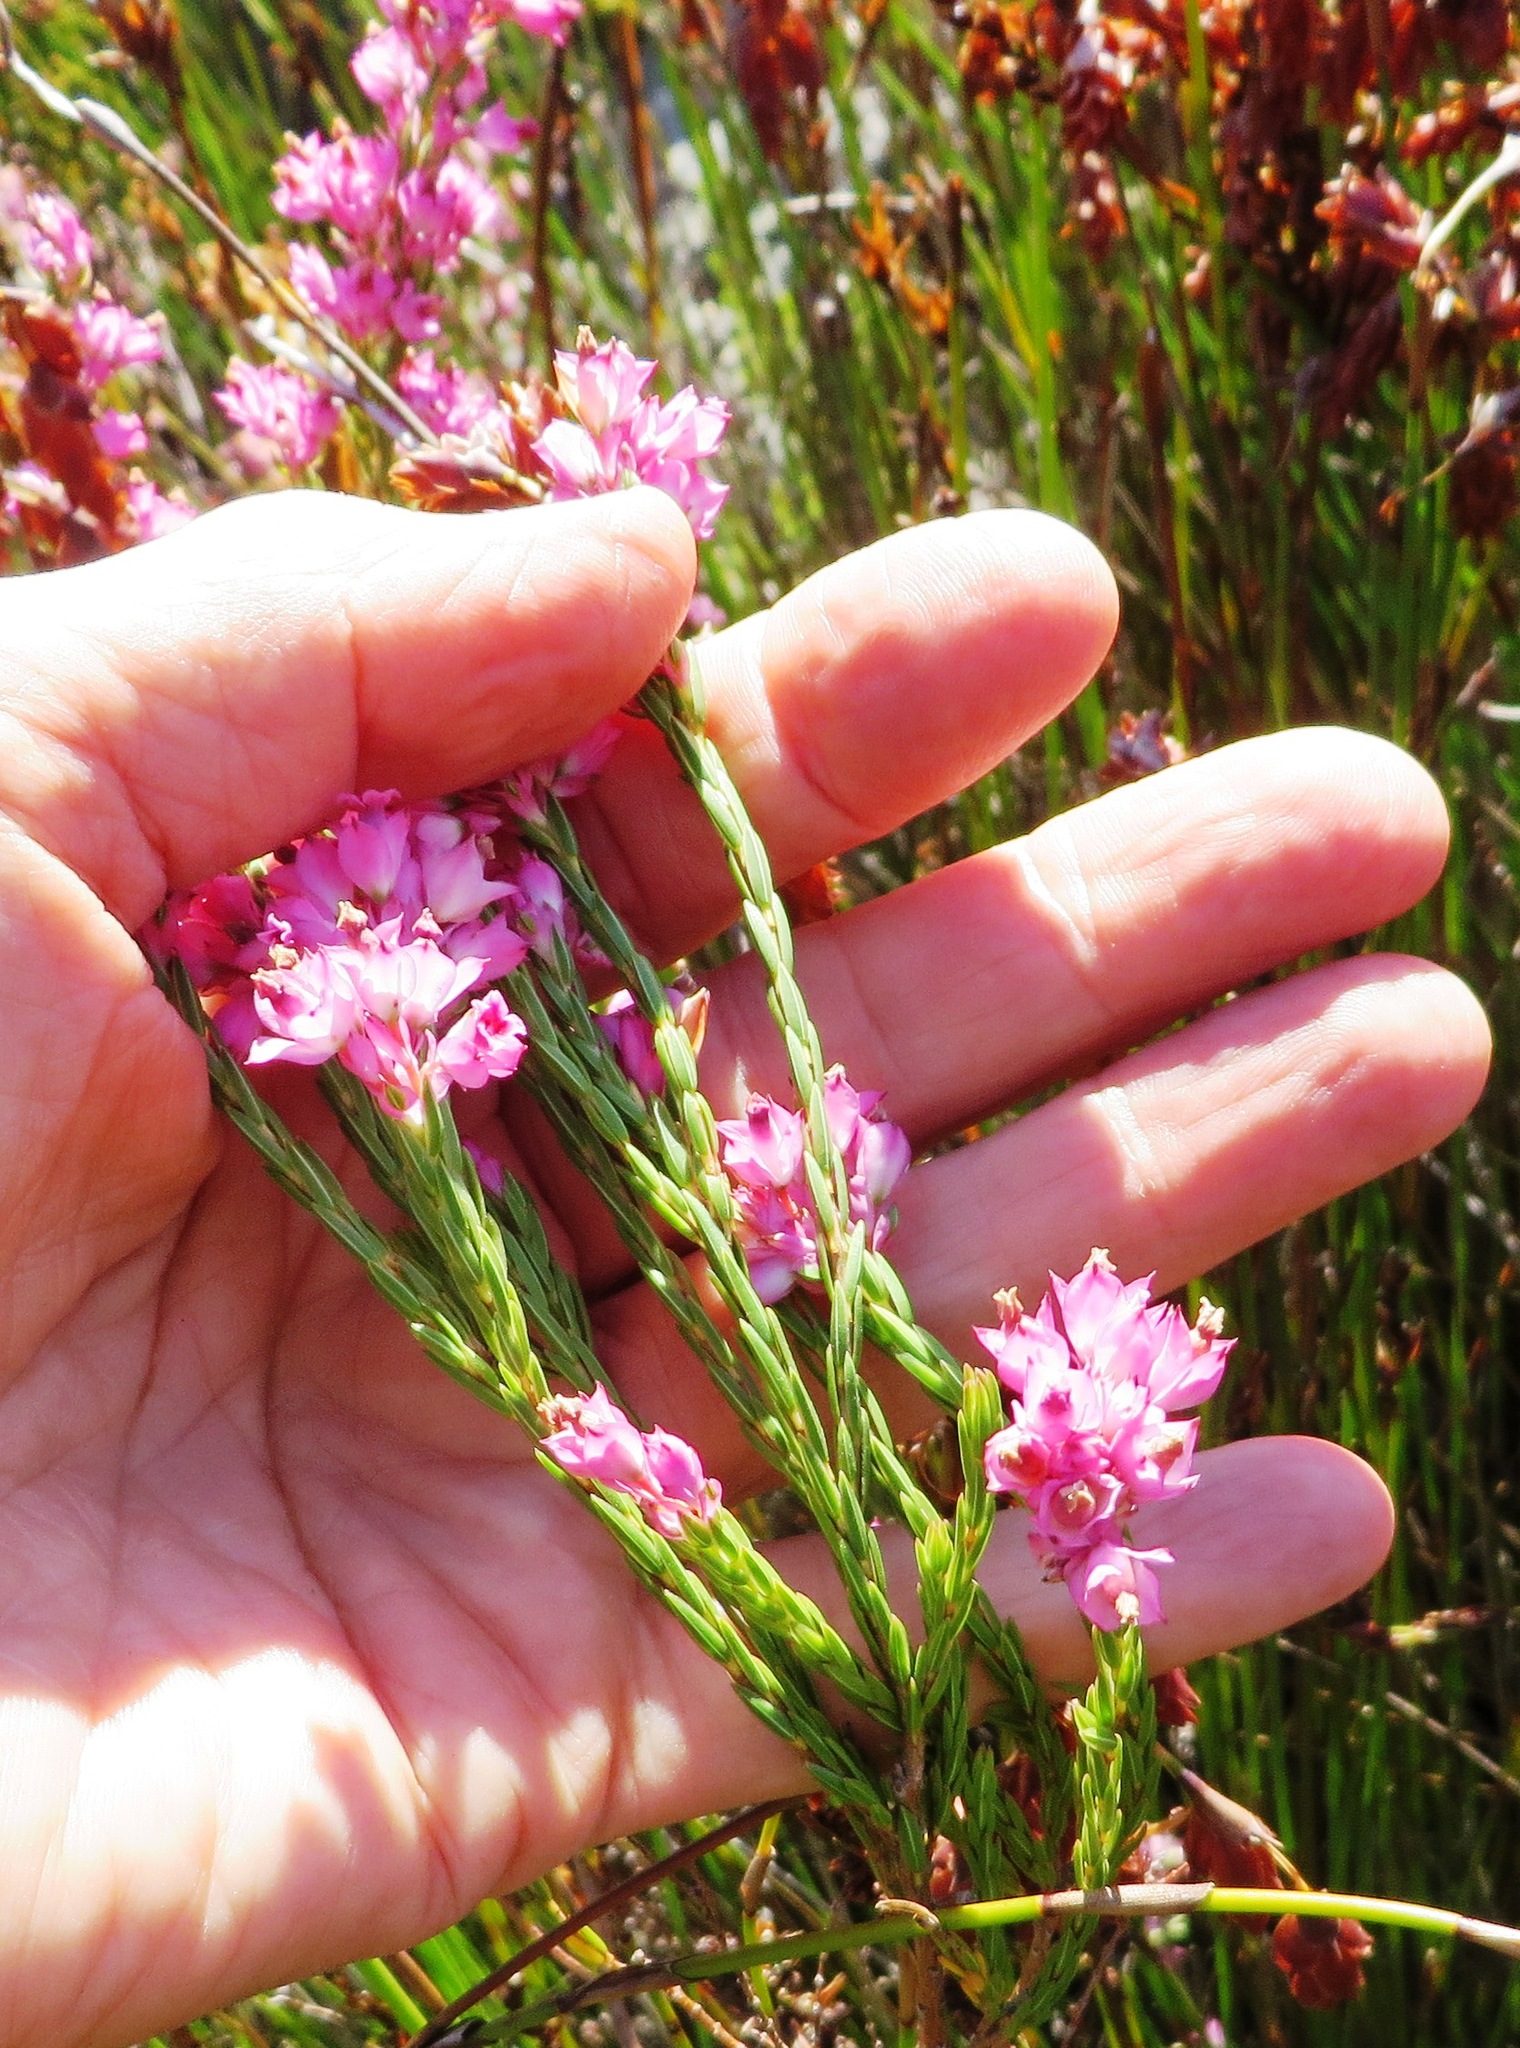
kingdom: Plantae
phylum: Tracheophyta
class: Magnoliopsida
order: Ericales
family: Ericaceae
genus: Erica
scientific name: Erica taxifolia
